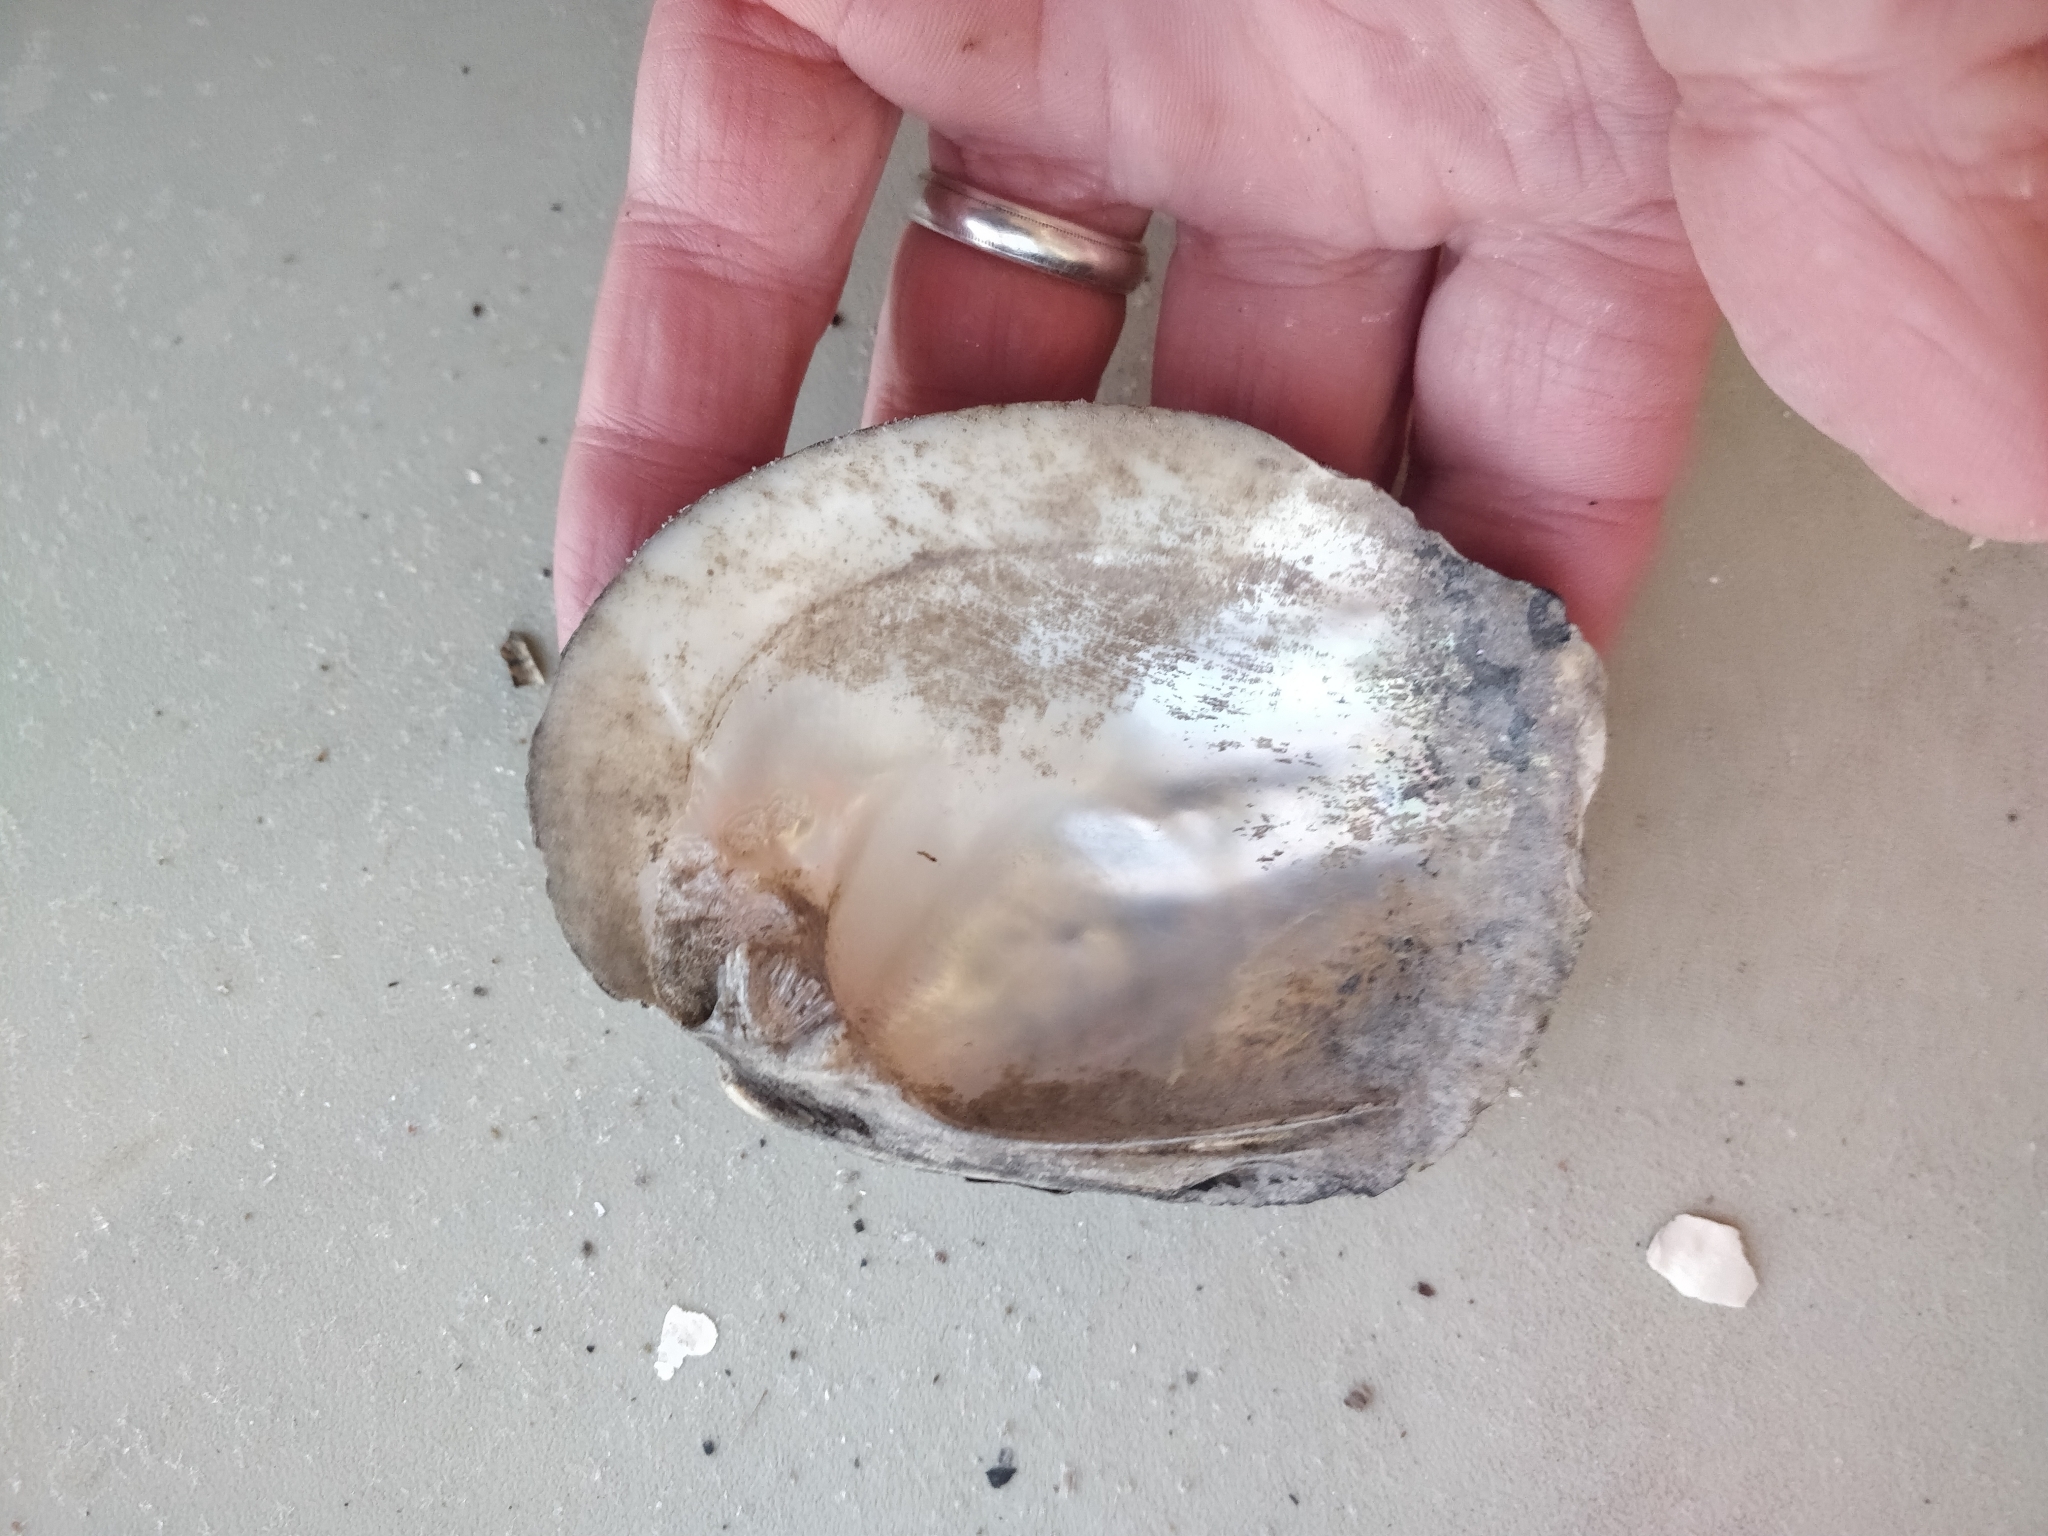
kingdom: Animalia
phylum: Mollusca
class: Bivalvia
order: Unionida
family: Unionidae
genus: Amblema
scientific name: Amblema plicata
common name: Threeridge
